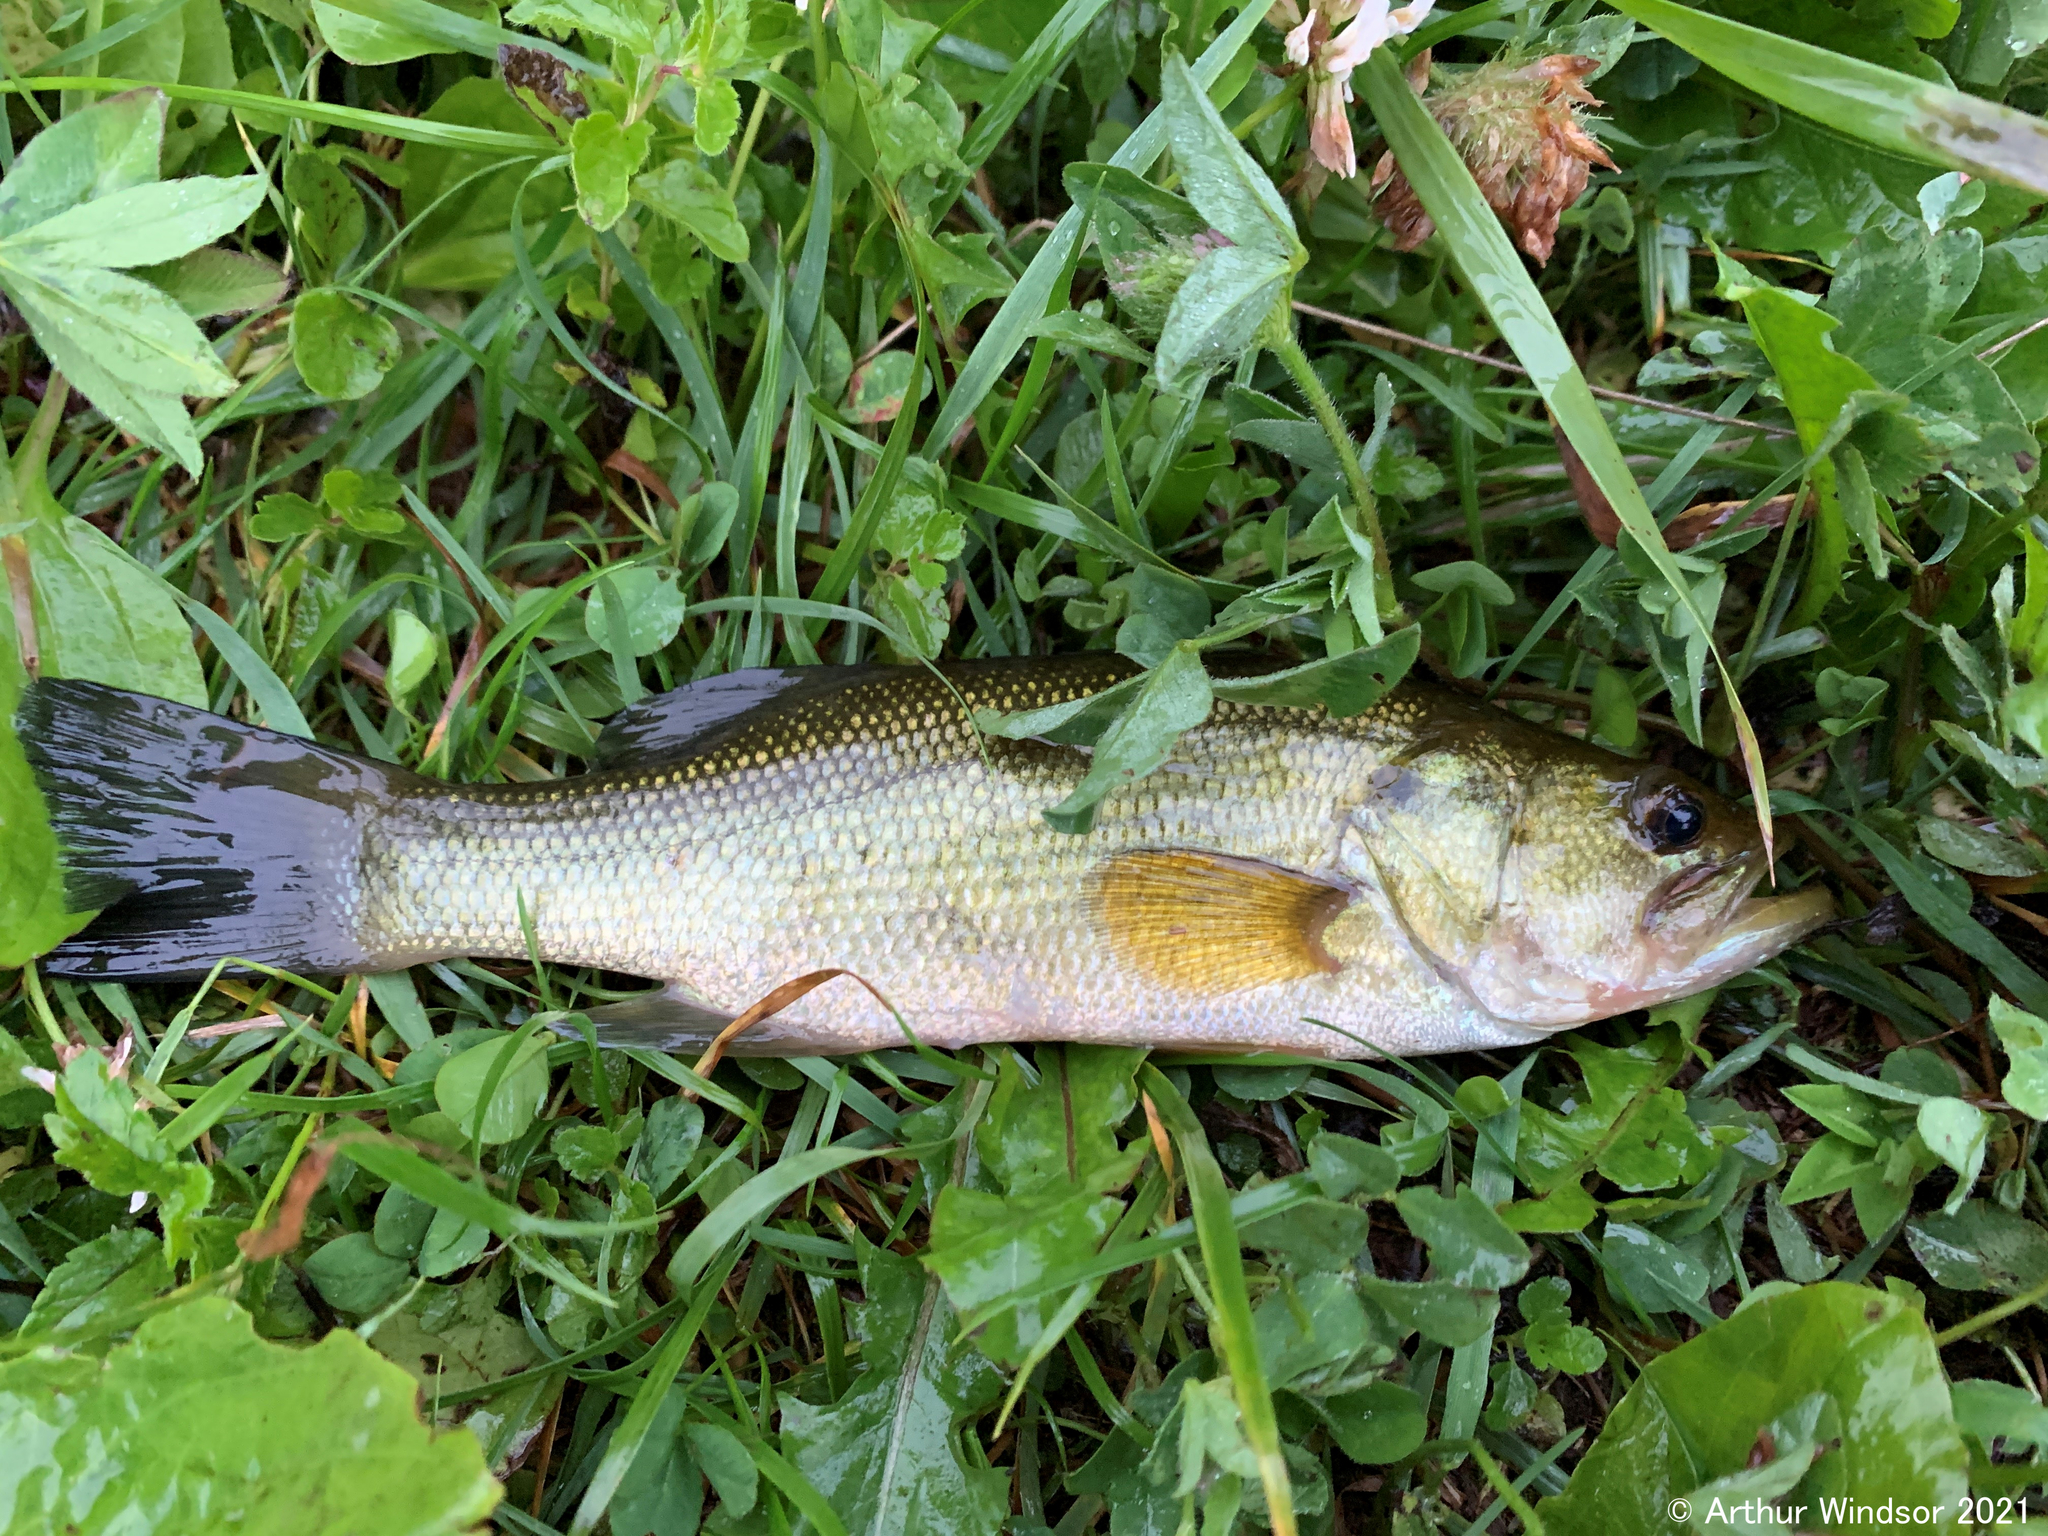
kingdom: Animalia
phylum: Chordata
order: Perciformes
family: Centrarchidae
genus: Micropterus
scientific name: Micropterus
